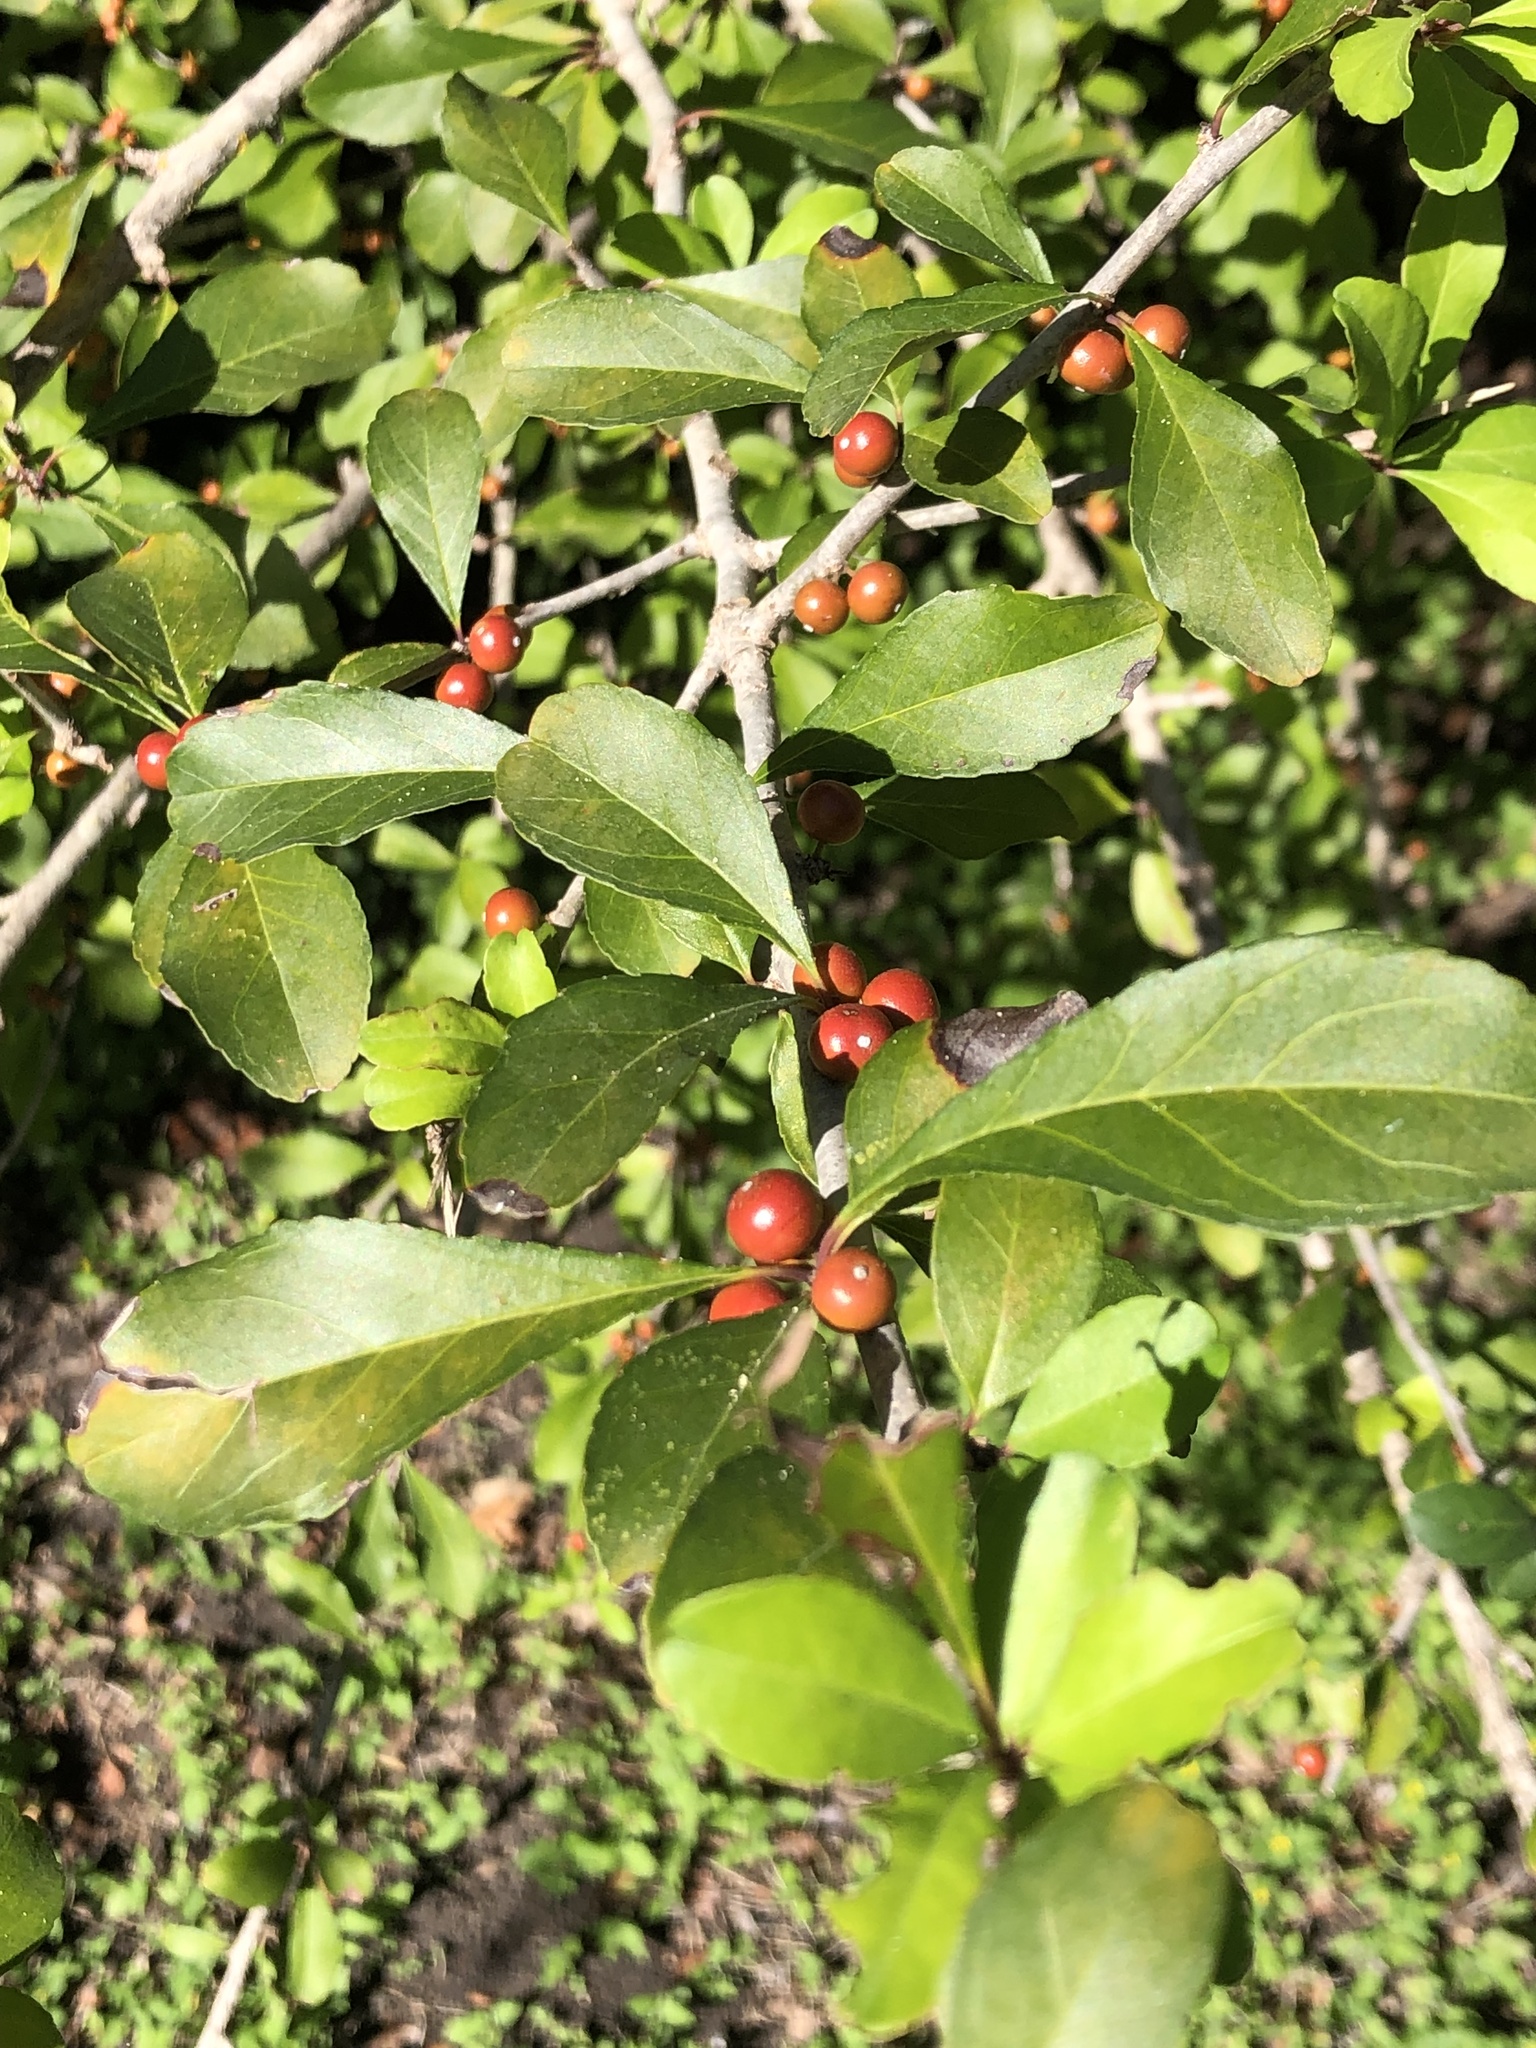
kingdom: Plantae
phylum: Tracheophyta
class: Magnoliopsida
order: Aquifoliales
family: Aquifoliaceae
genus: Ilex
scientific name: Ilex decidua
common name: Possum-haw
